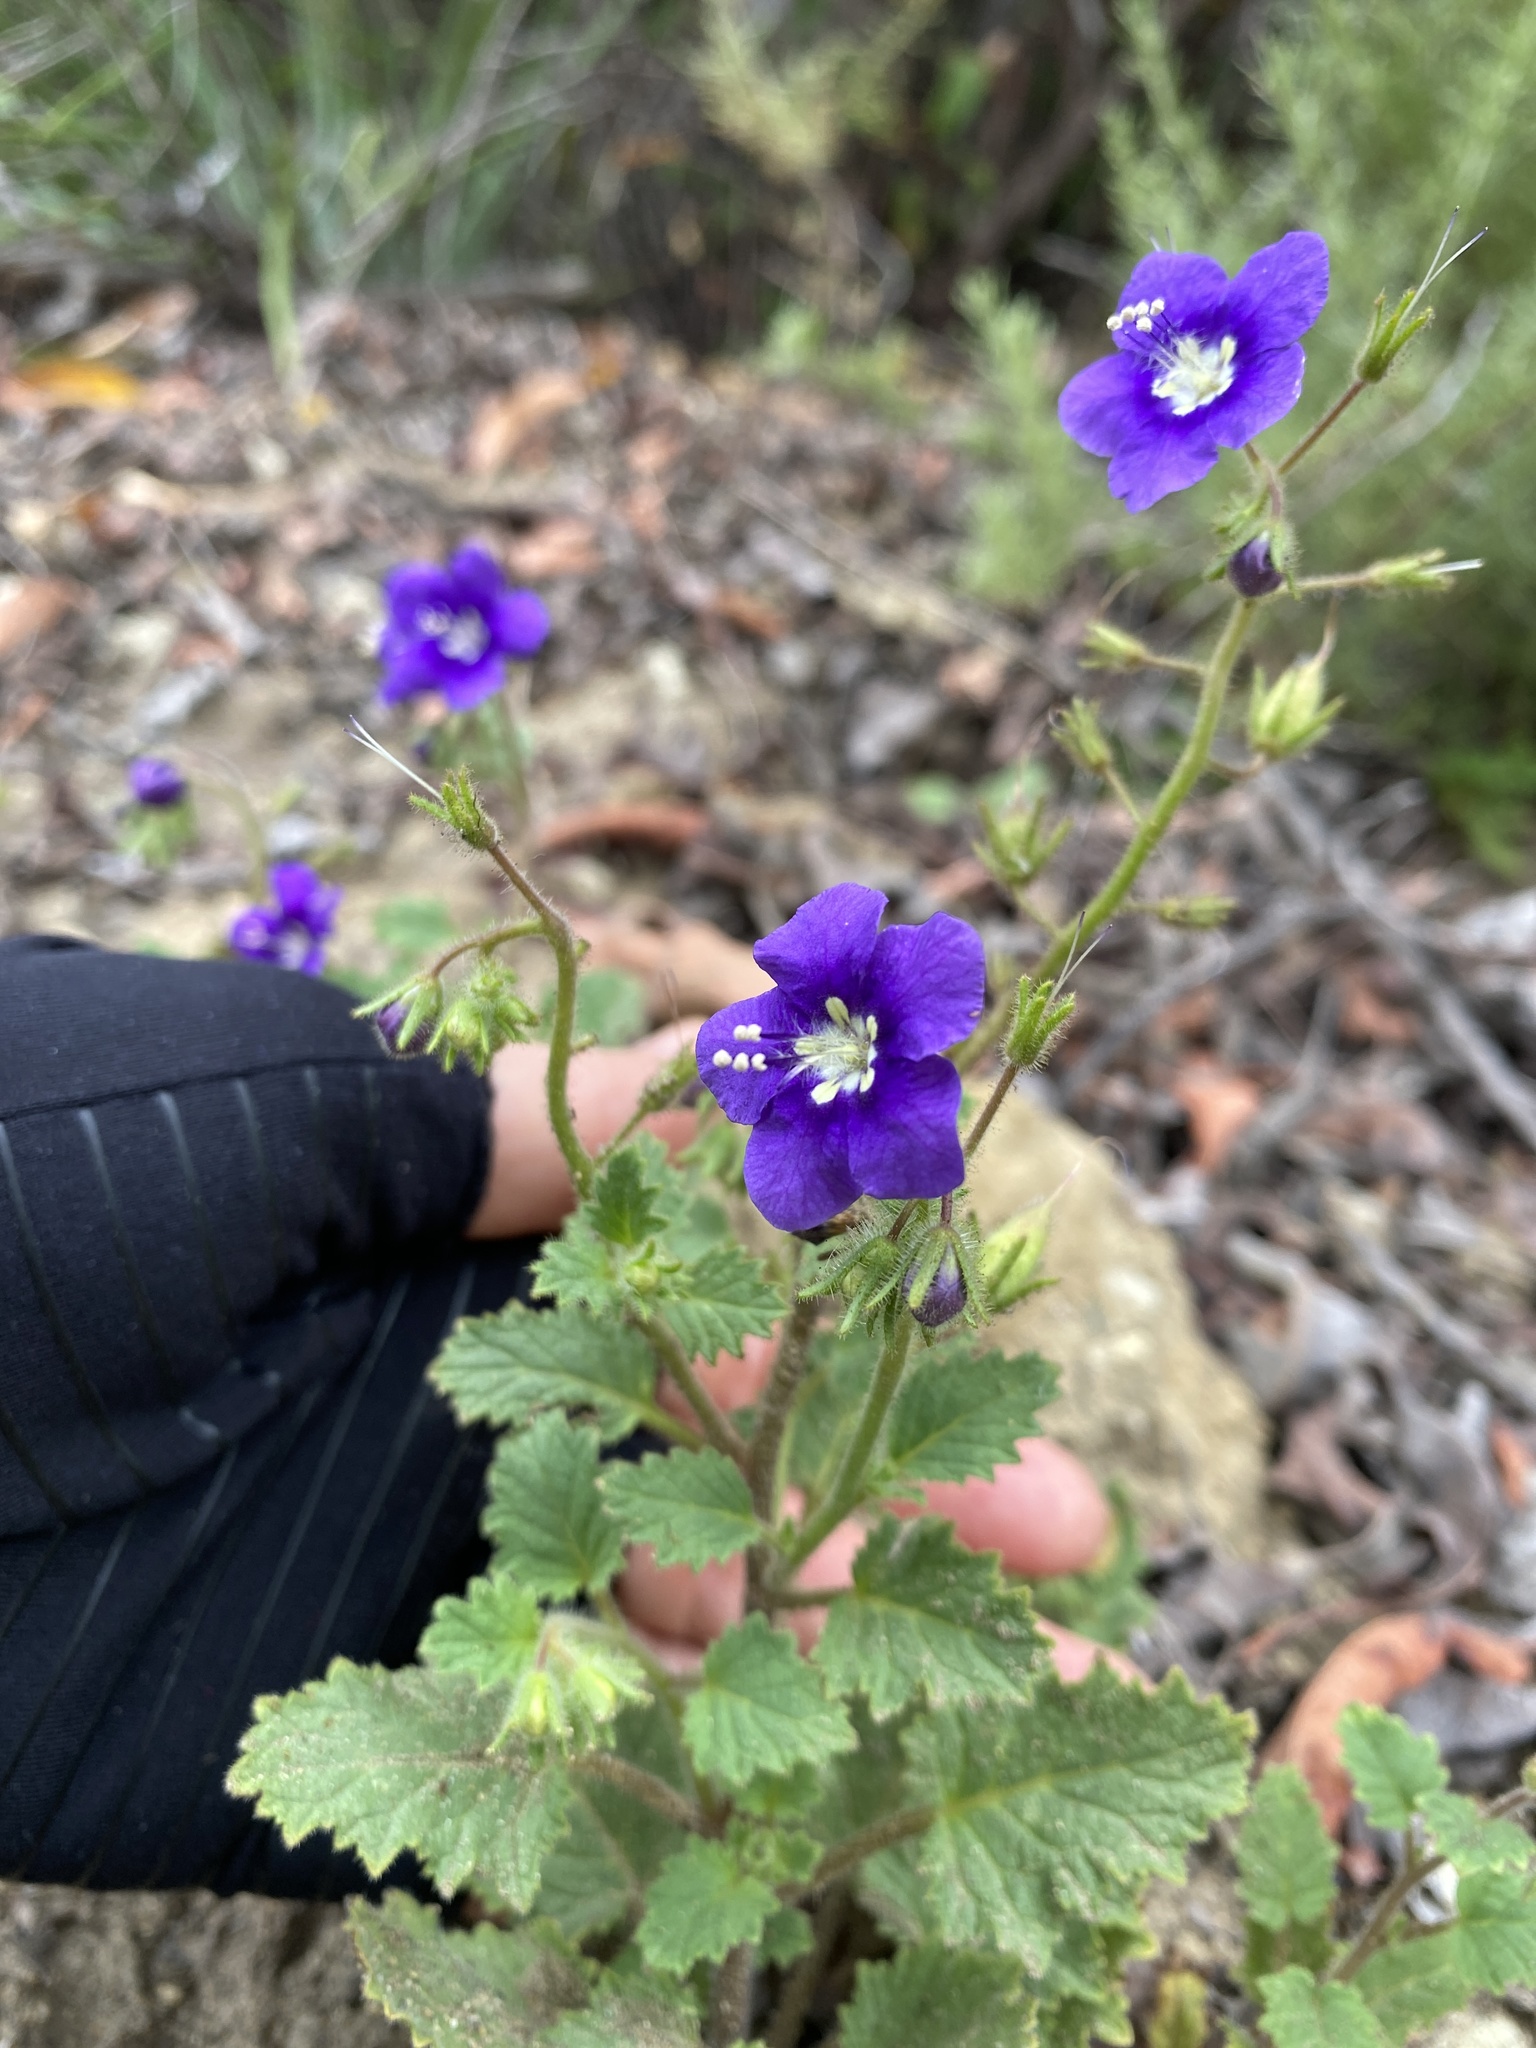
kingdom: Plantae
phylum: Tracheophyta
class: Magnoliopsida
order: Boraginales
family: Hydrophyllaceae
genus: Phacelia
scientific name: Phacelia parryi
